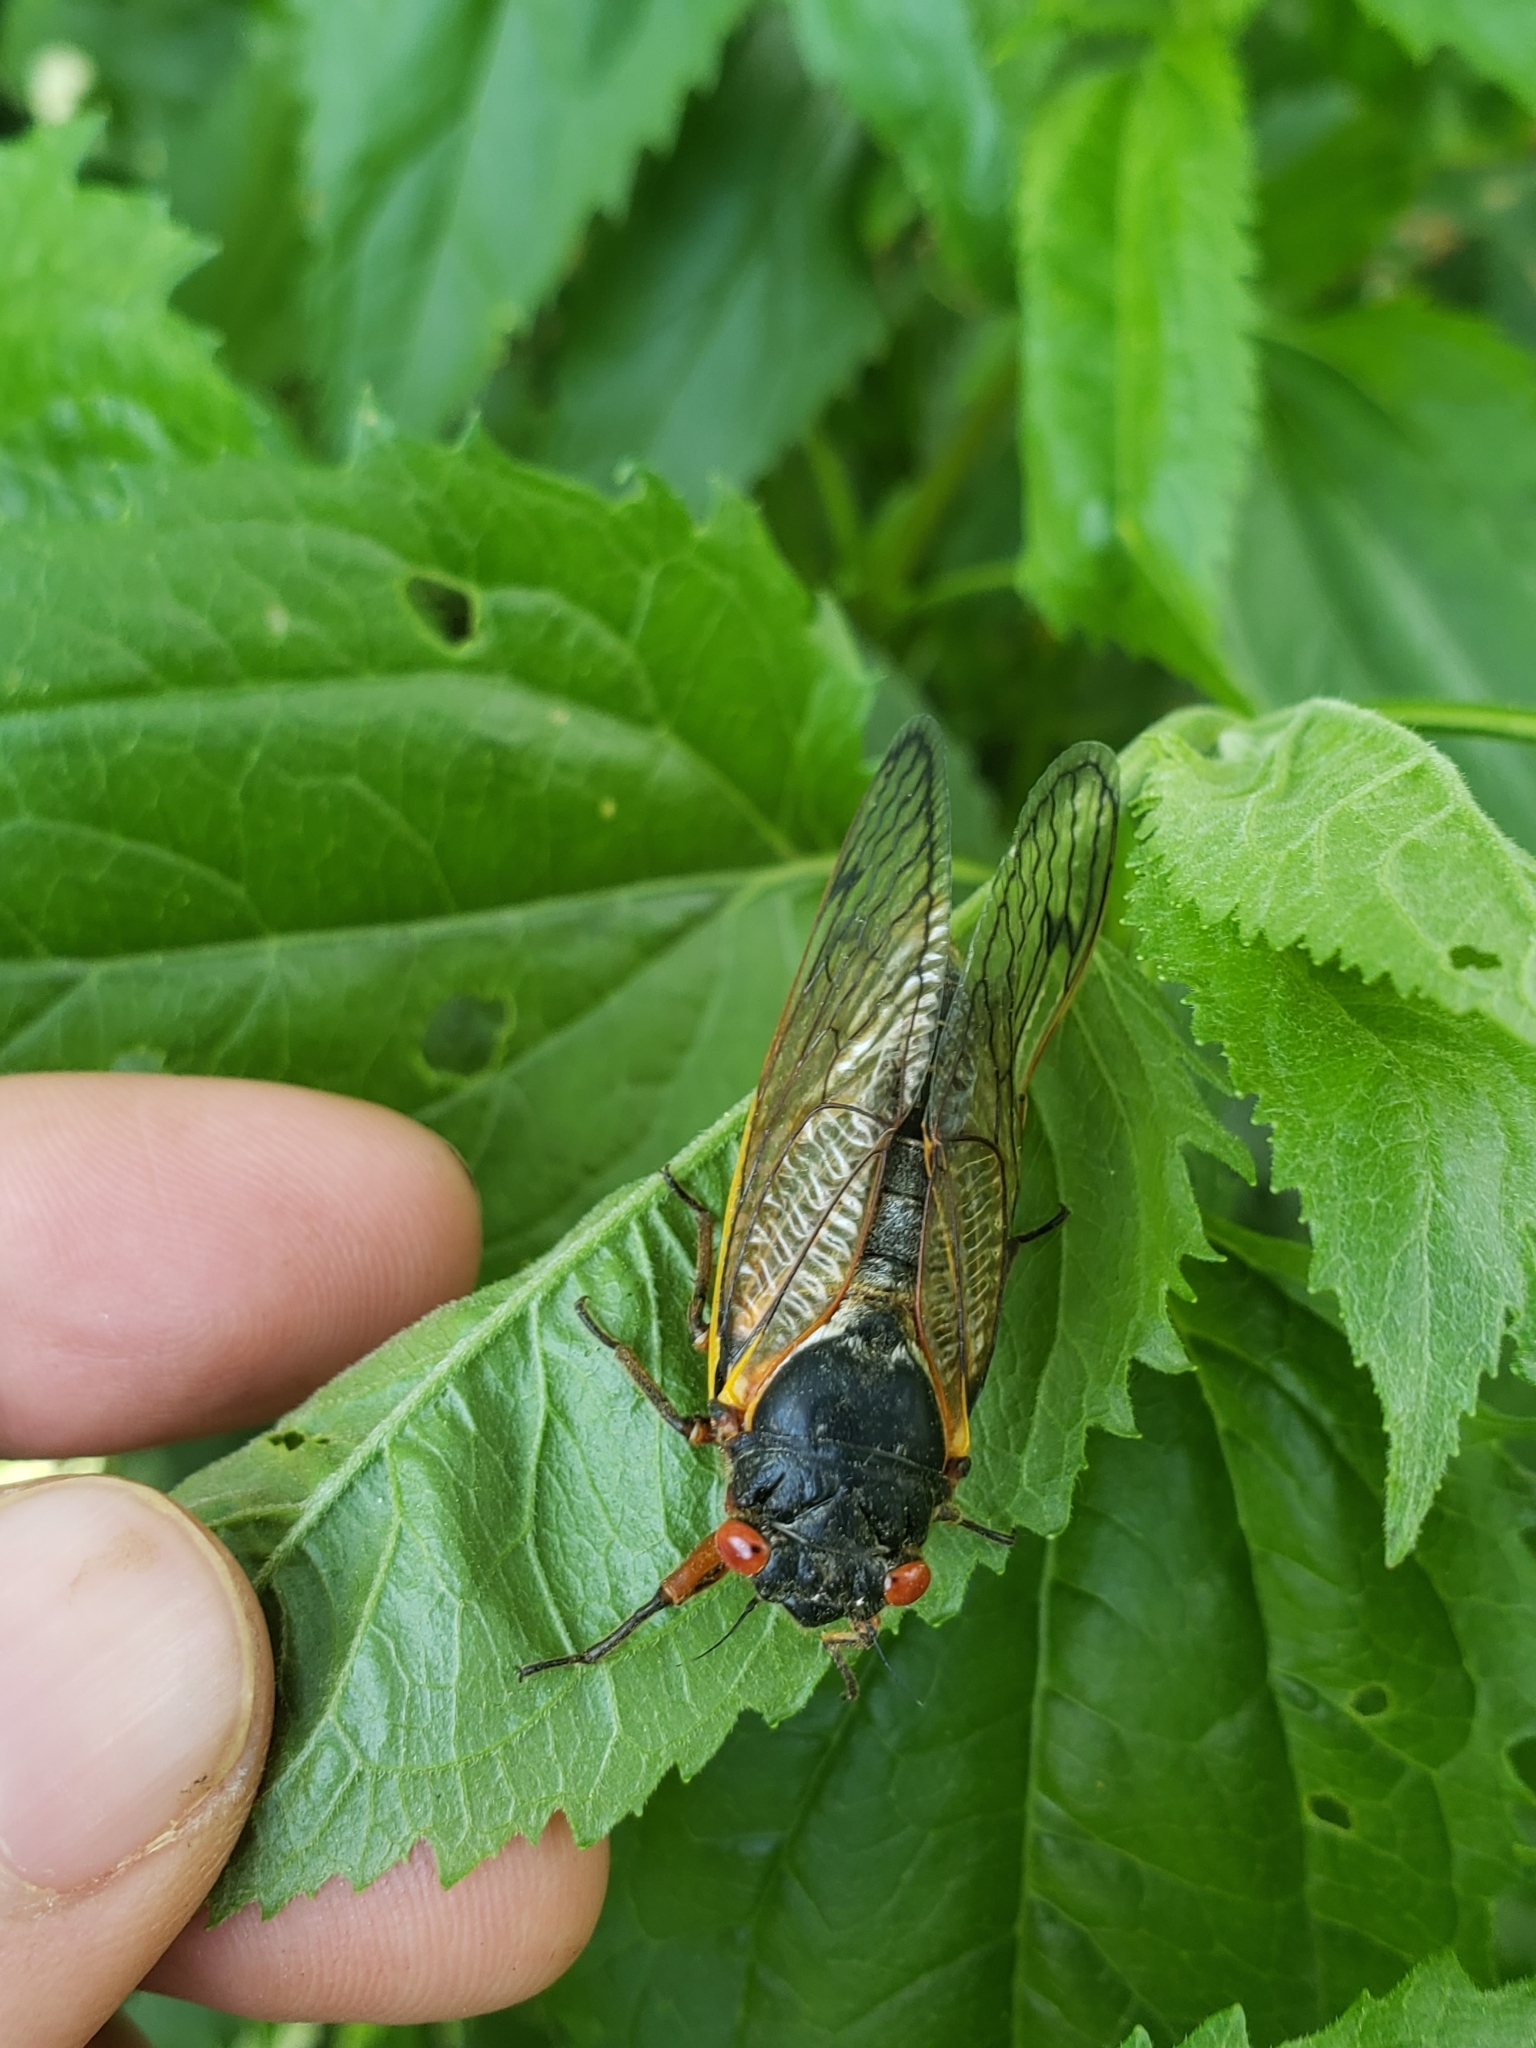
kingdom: Animalia
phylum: Arthropoda
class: Insecta
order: Hemiptera
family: Cicadidae
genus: Magicicada
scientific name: Magicicada septendecim
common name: Periodical cicada
